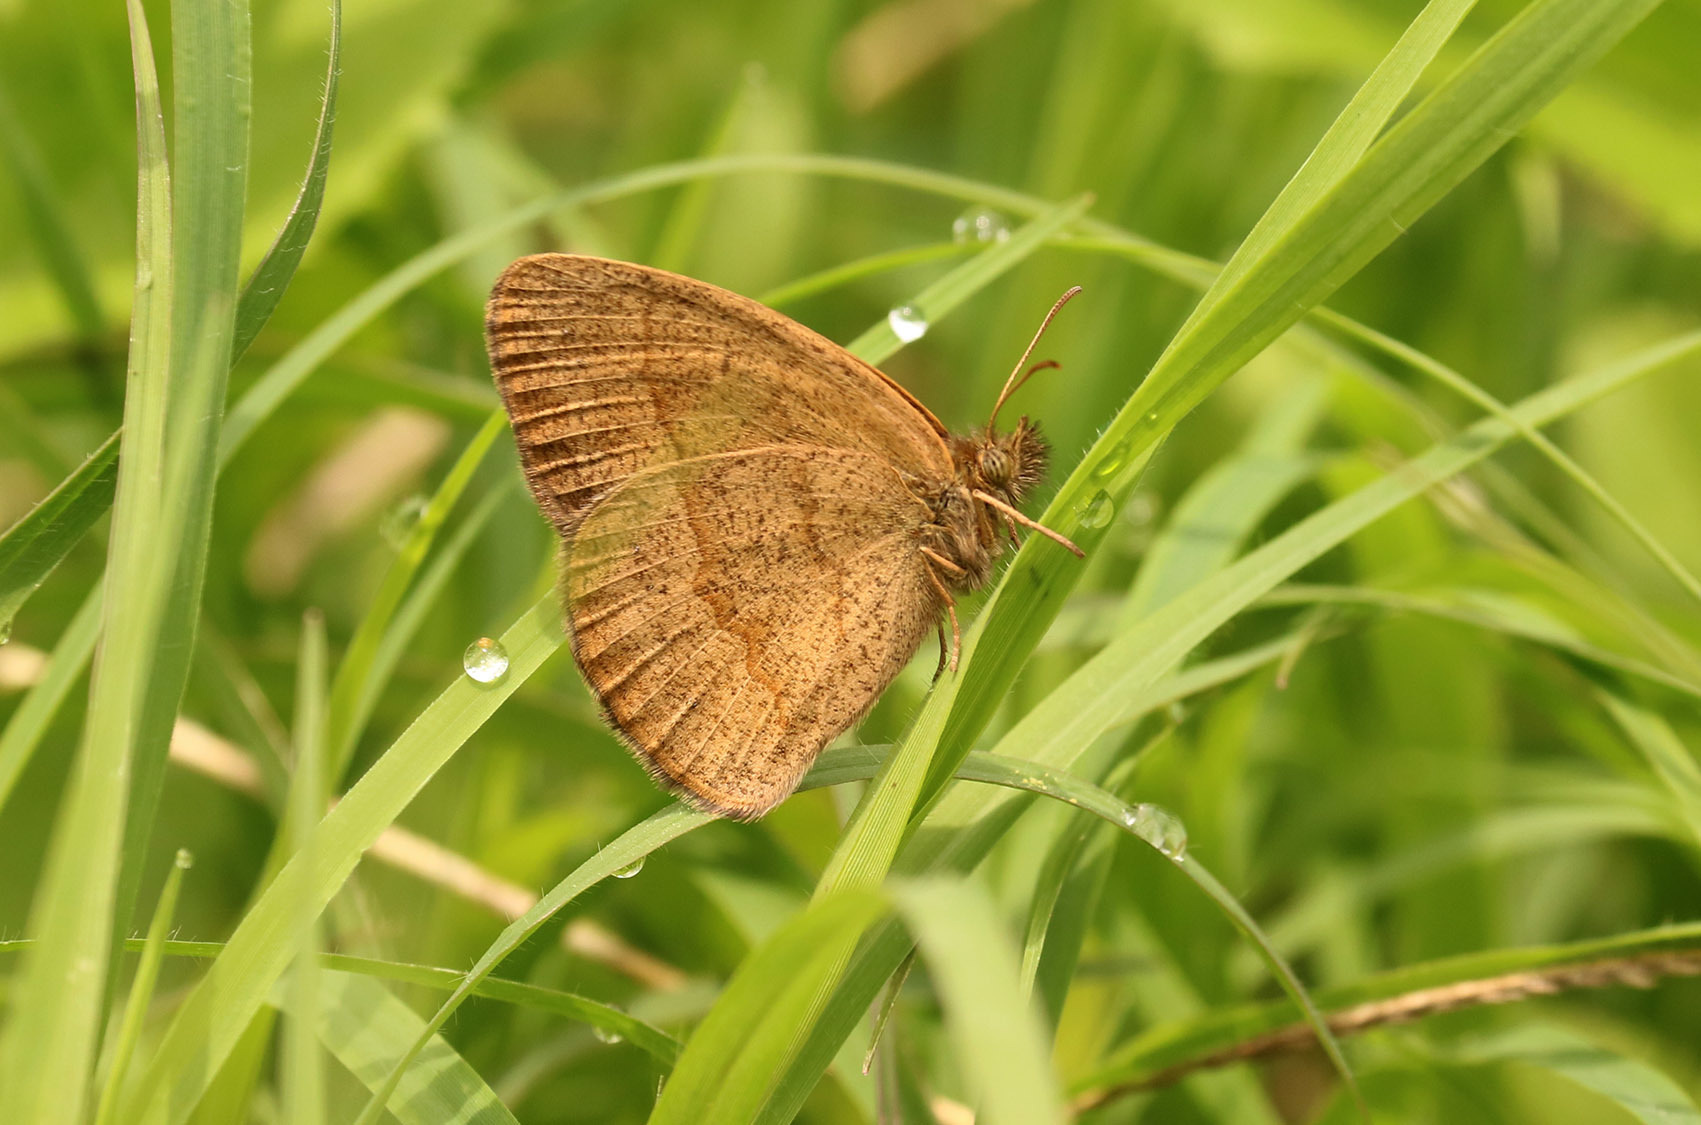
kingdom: Animalia
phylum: Arthropoda
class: Insecta
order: Lepidoptera
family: Nymphalidae
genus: Yphthimoides
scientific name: Yphthimoides celmis
